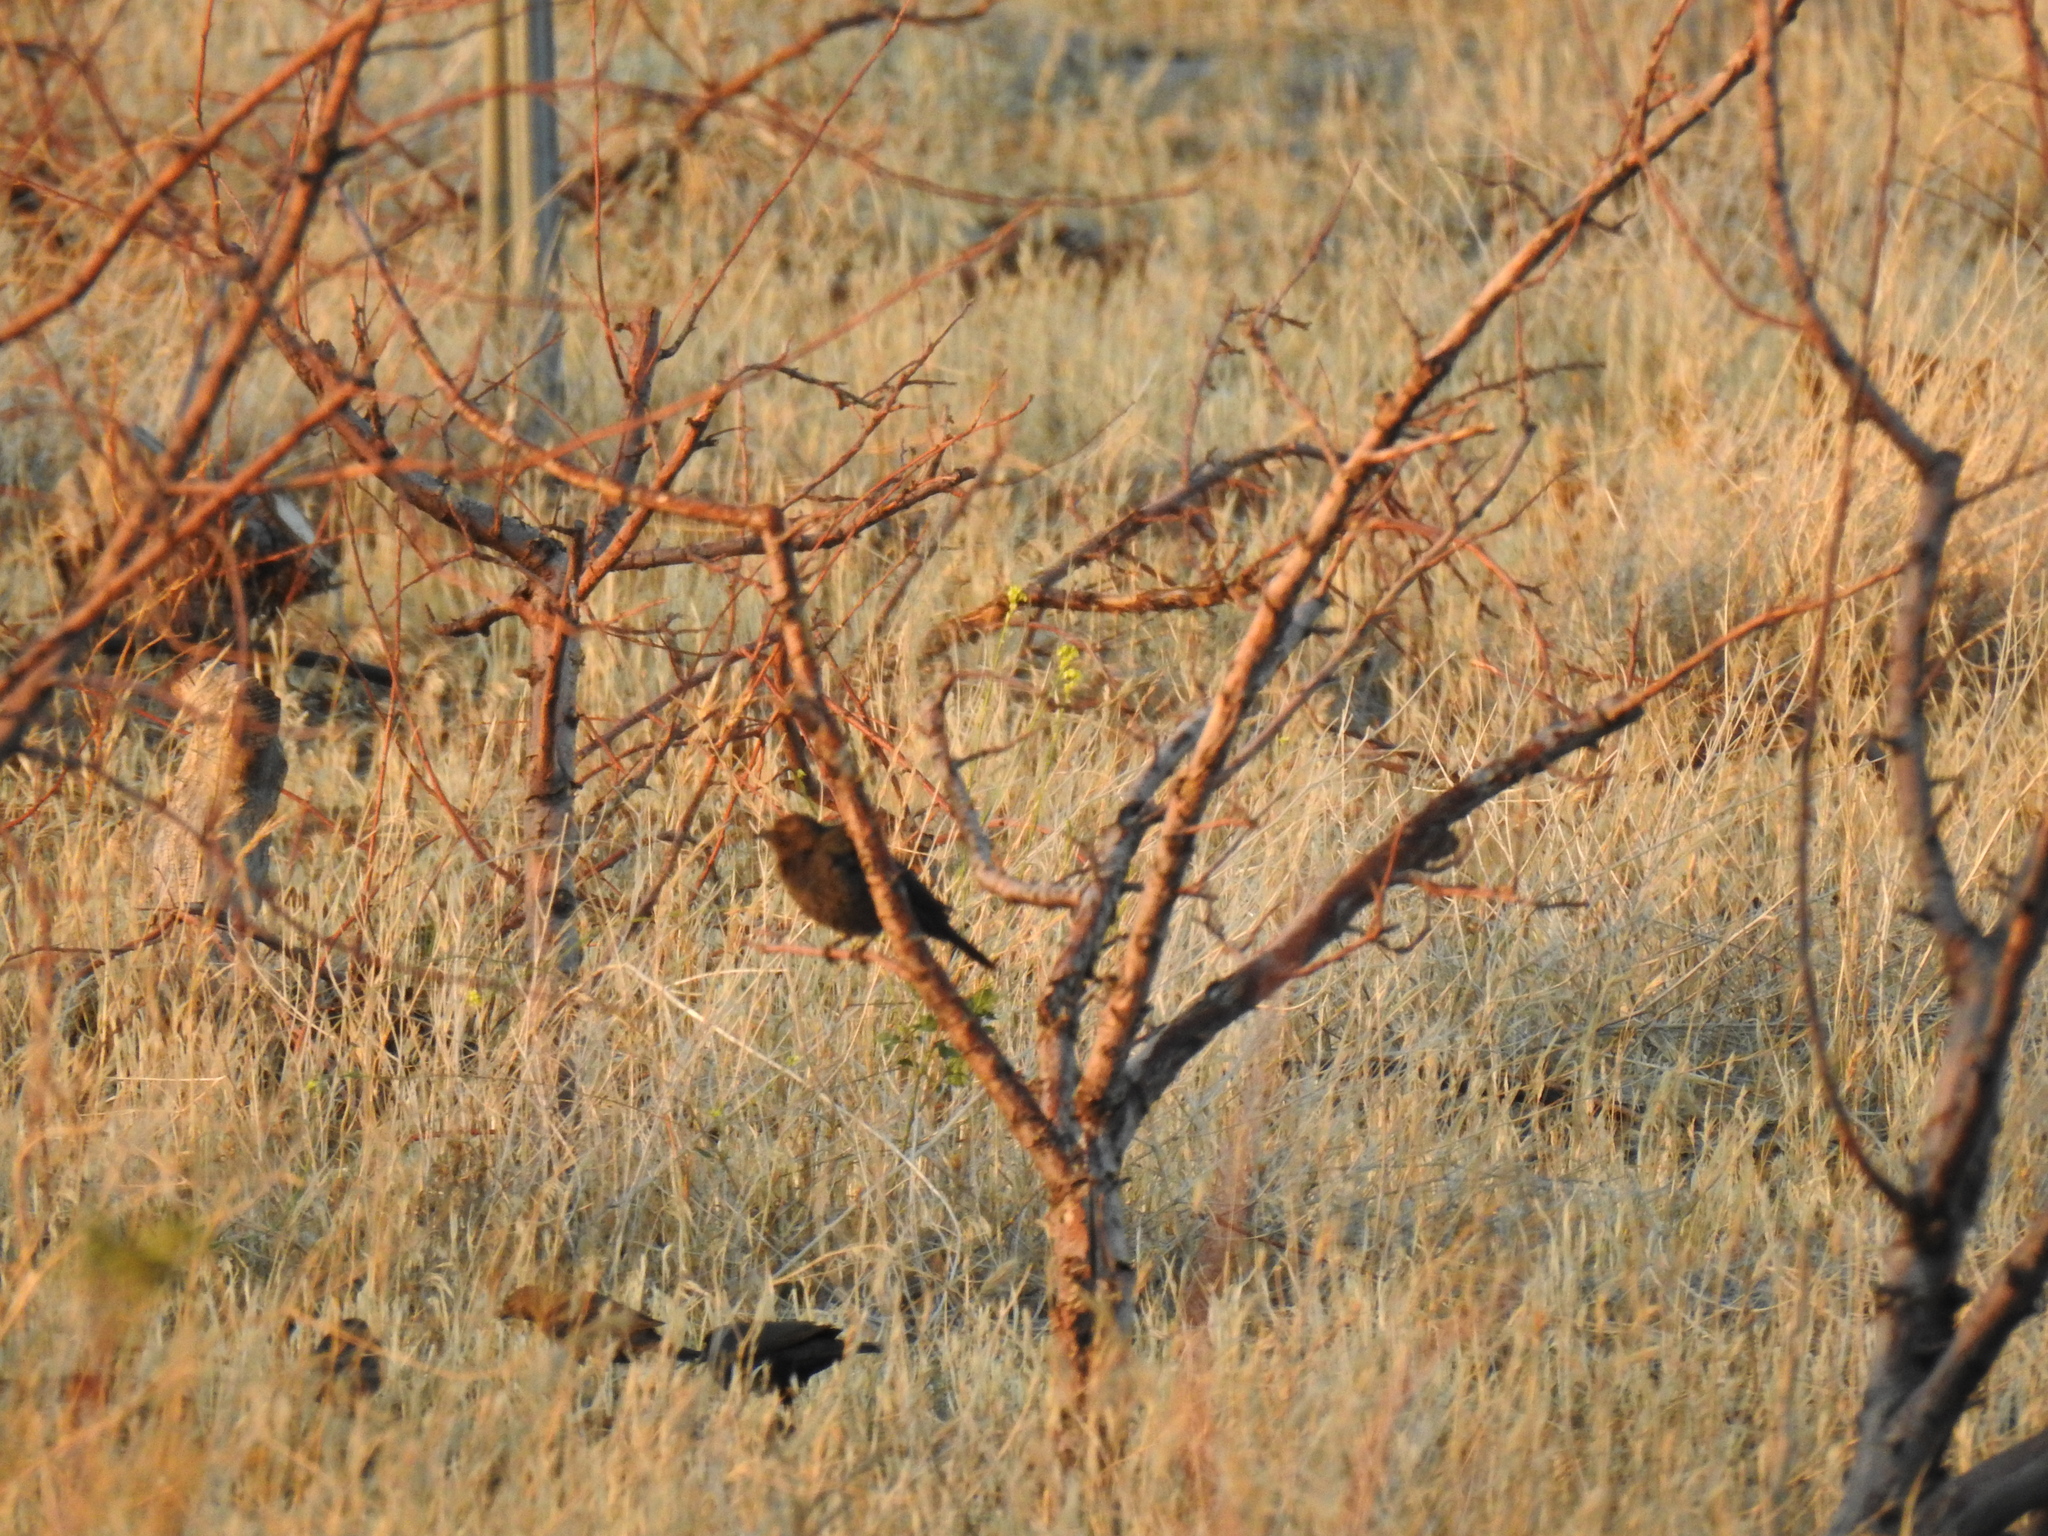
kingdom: Animalia
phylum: Chordata
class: Aves
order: Passeriformes
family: Icteridae
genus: Euphagus
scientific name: Euphagus cyanocephalus
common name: Brewer's blackbird
